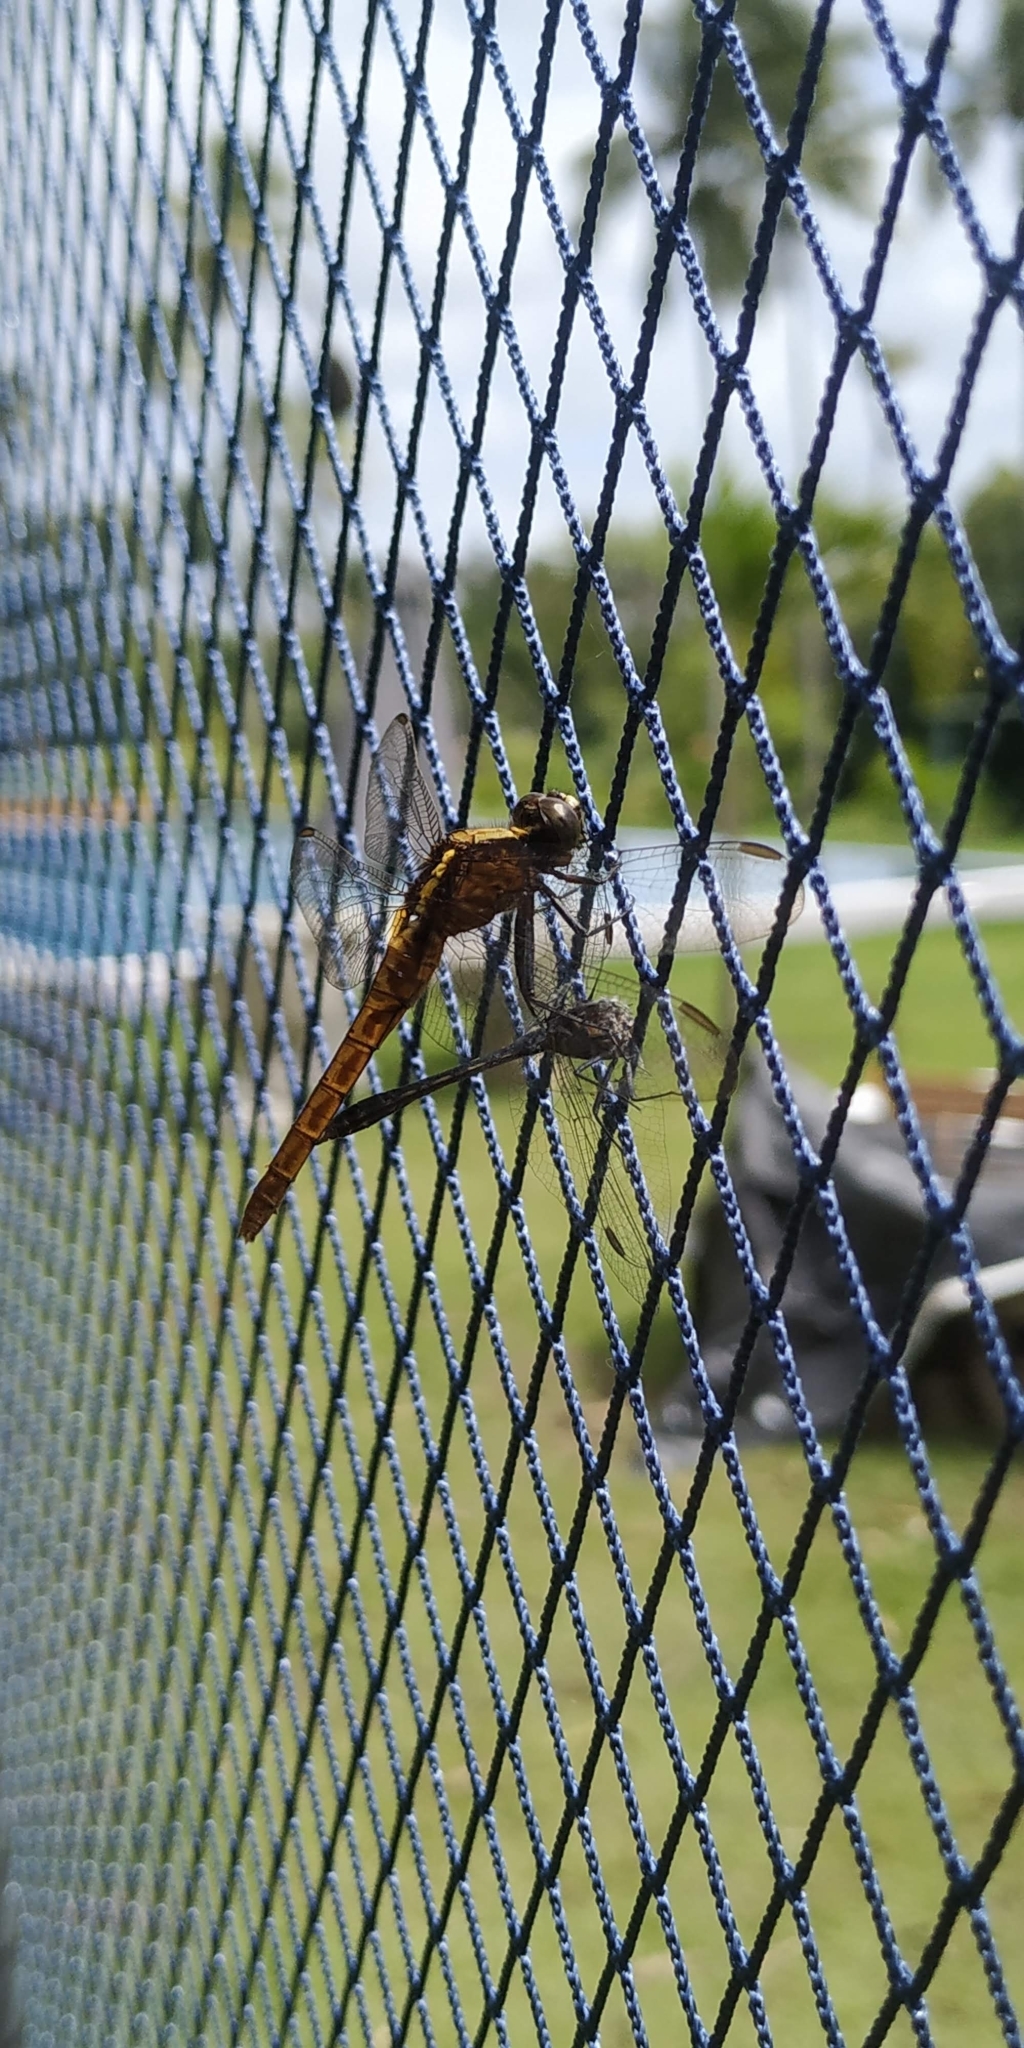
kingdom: Animalia
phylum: Arthropoda
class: Insecta
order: Odonata
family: Libellulidae
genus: Erythemis
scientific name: Erythemis peruviana
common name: Flame-tailed pondhawk
